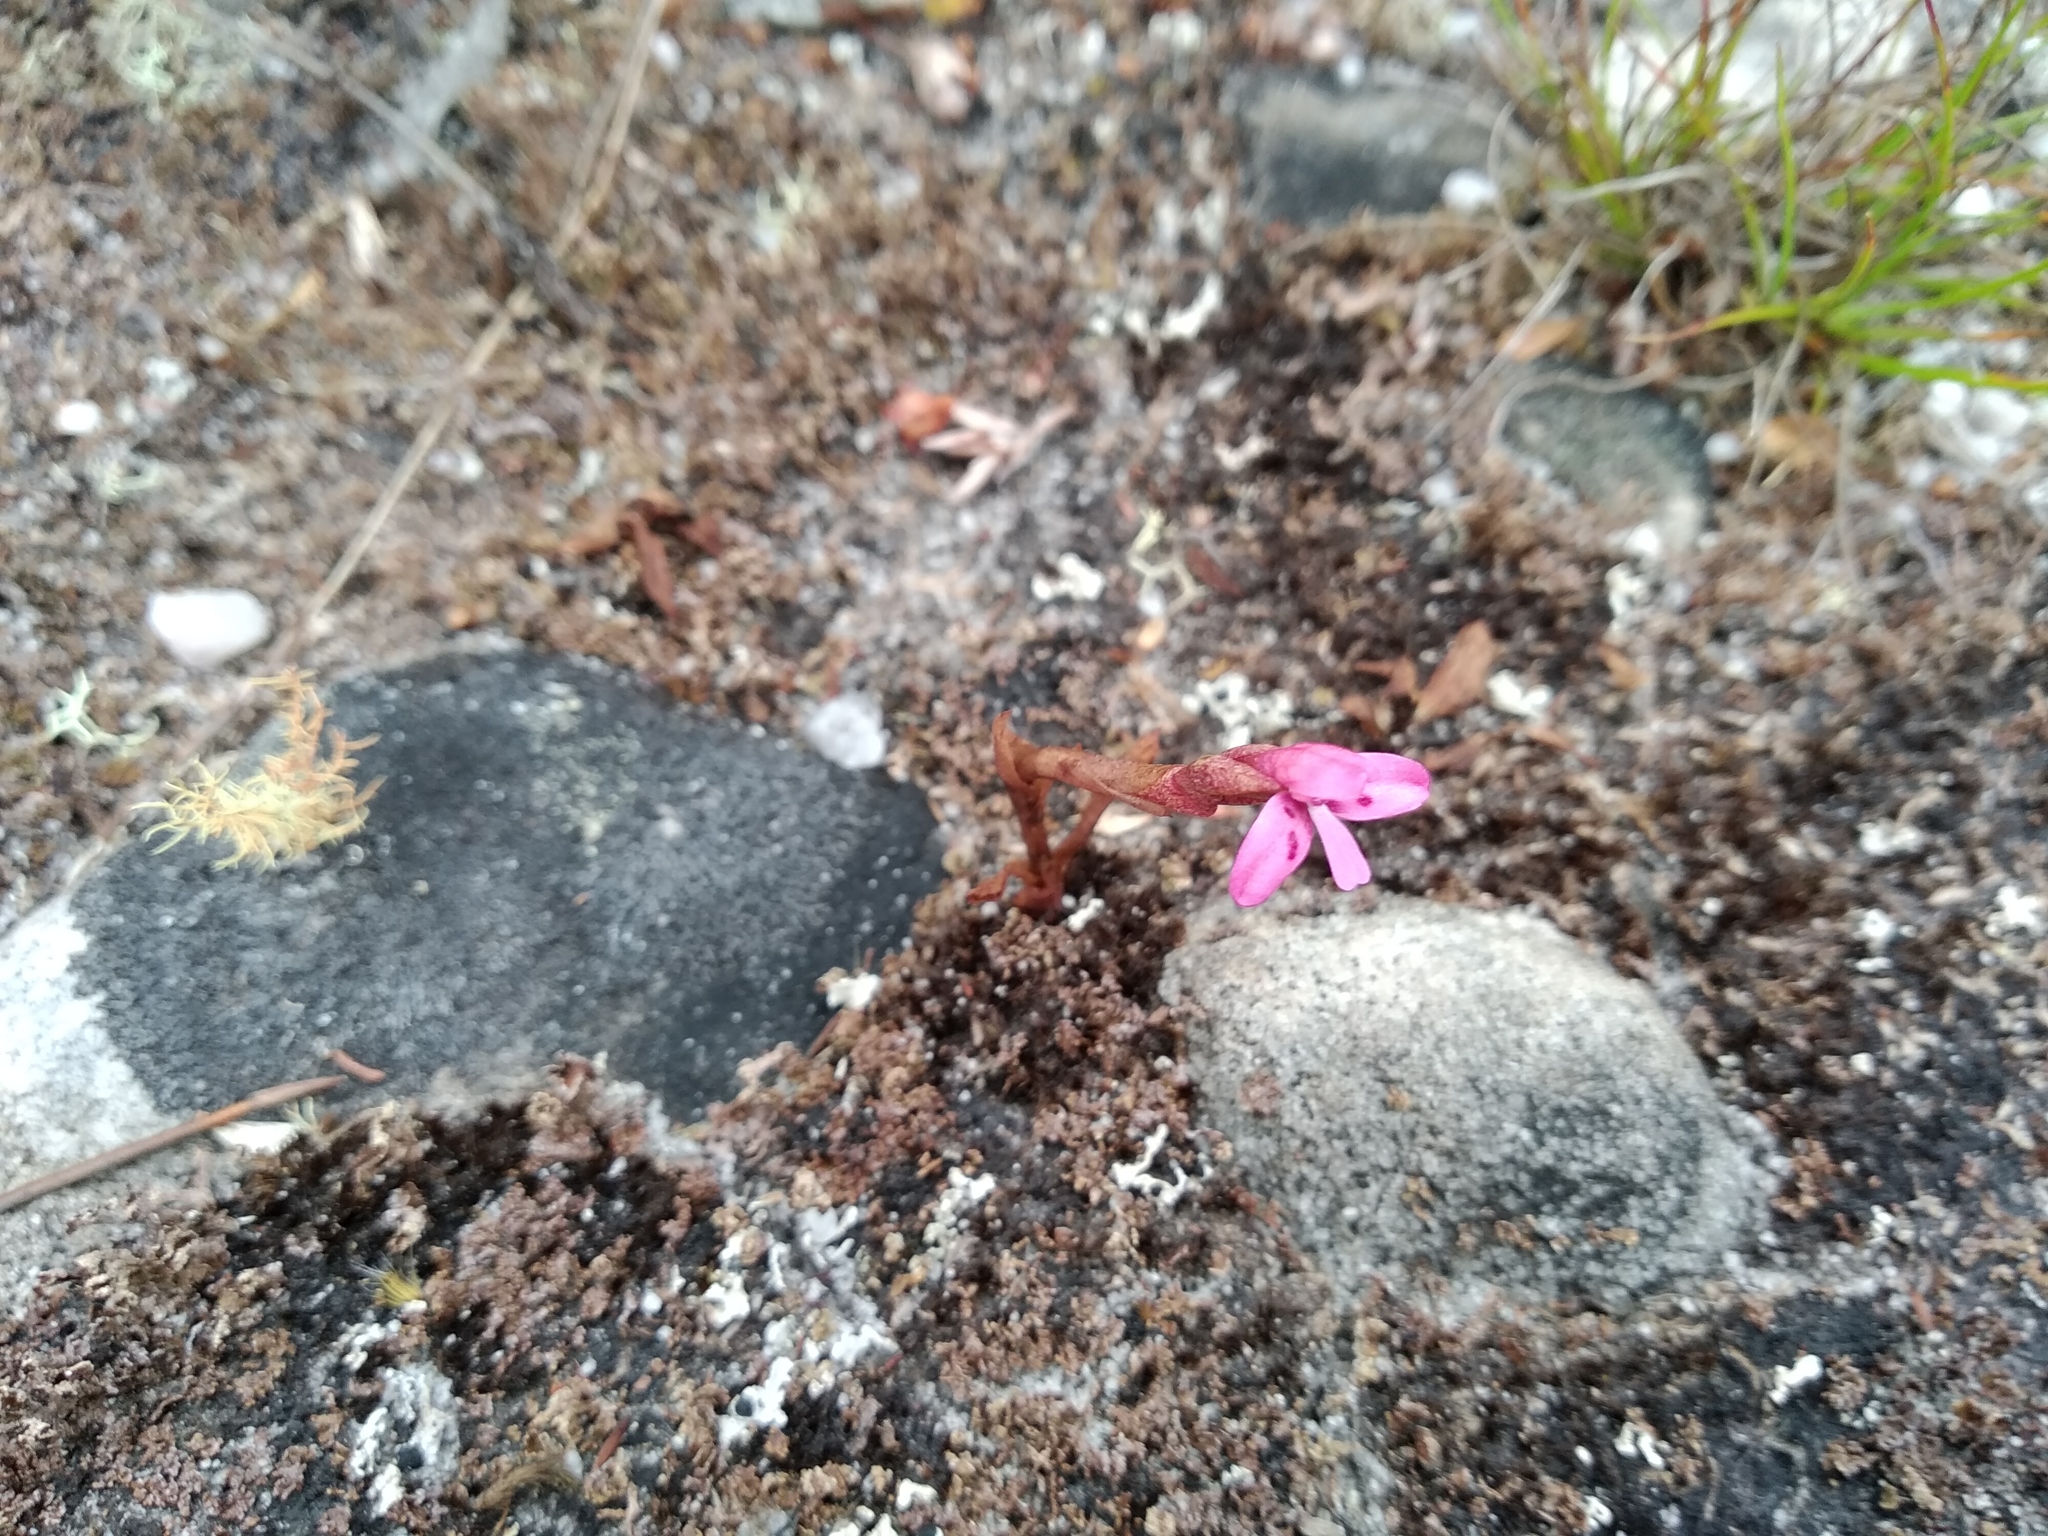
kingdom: Plantae
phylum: Tracheophyta
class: Liliopsida
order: Asparagales
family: Orchidaceae
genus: Disa
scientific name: Disa vaginata
